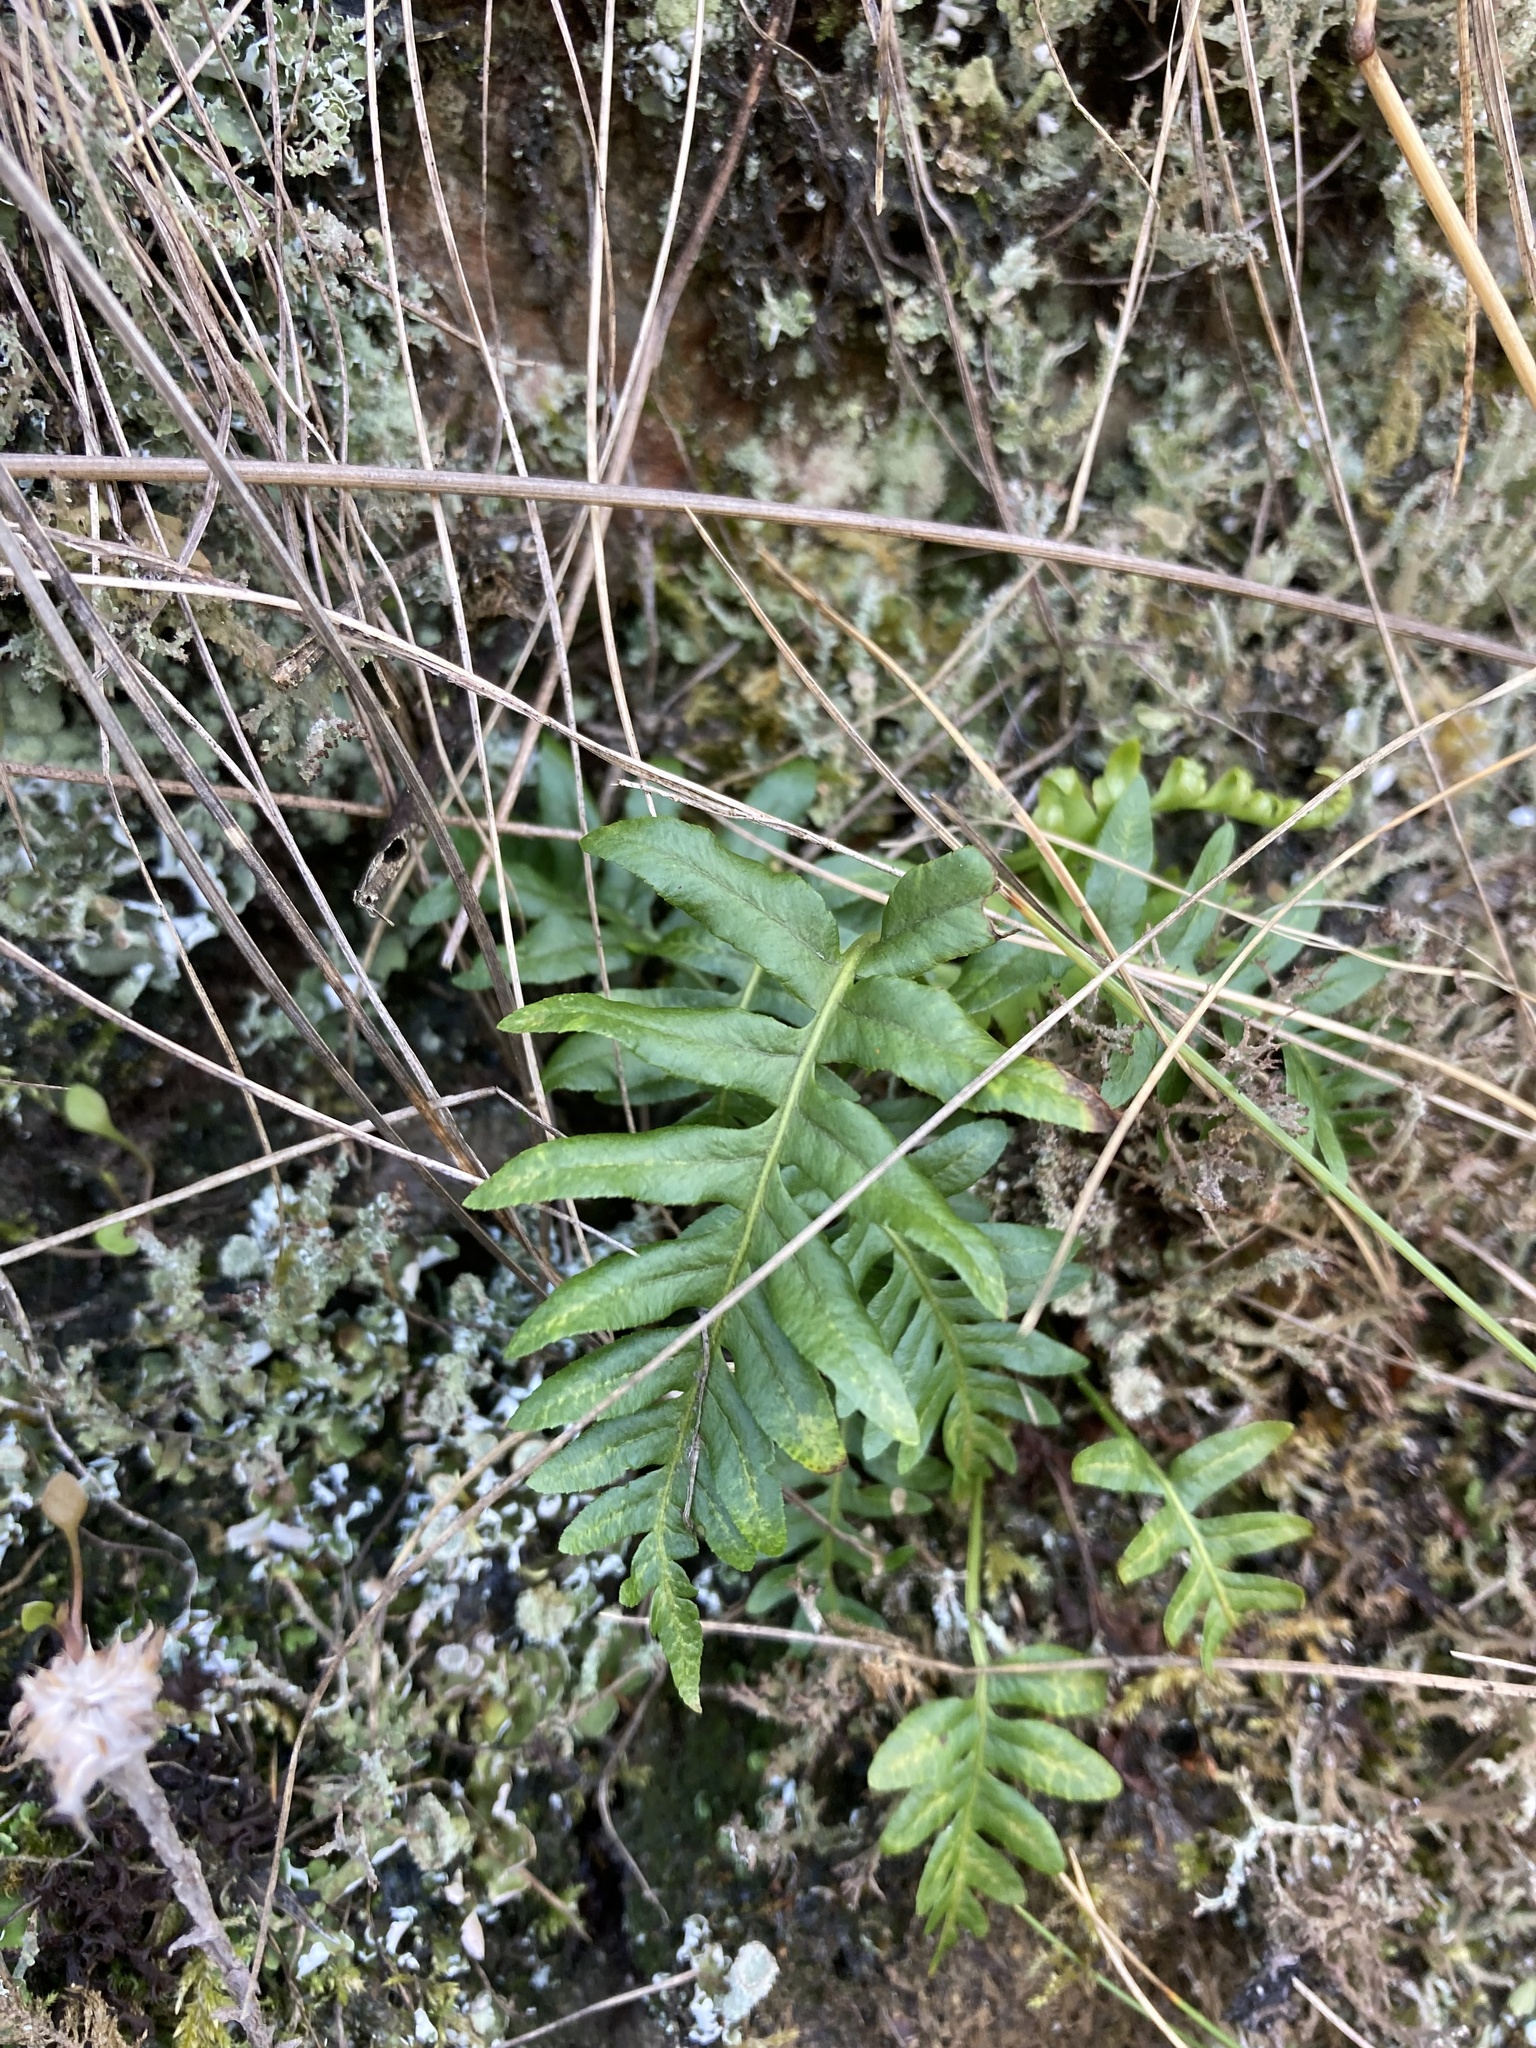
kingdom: Plantae
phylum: Tracheophyta
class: Polypodiopsida
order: Polypodiales
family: Polypodiaceae
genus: Polypodium
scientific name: Polypodium glycyrrhiza
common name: Licorice fern
